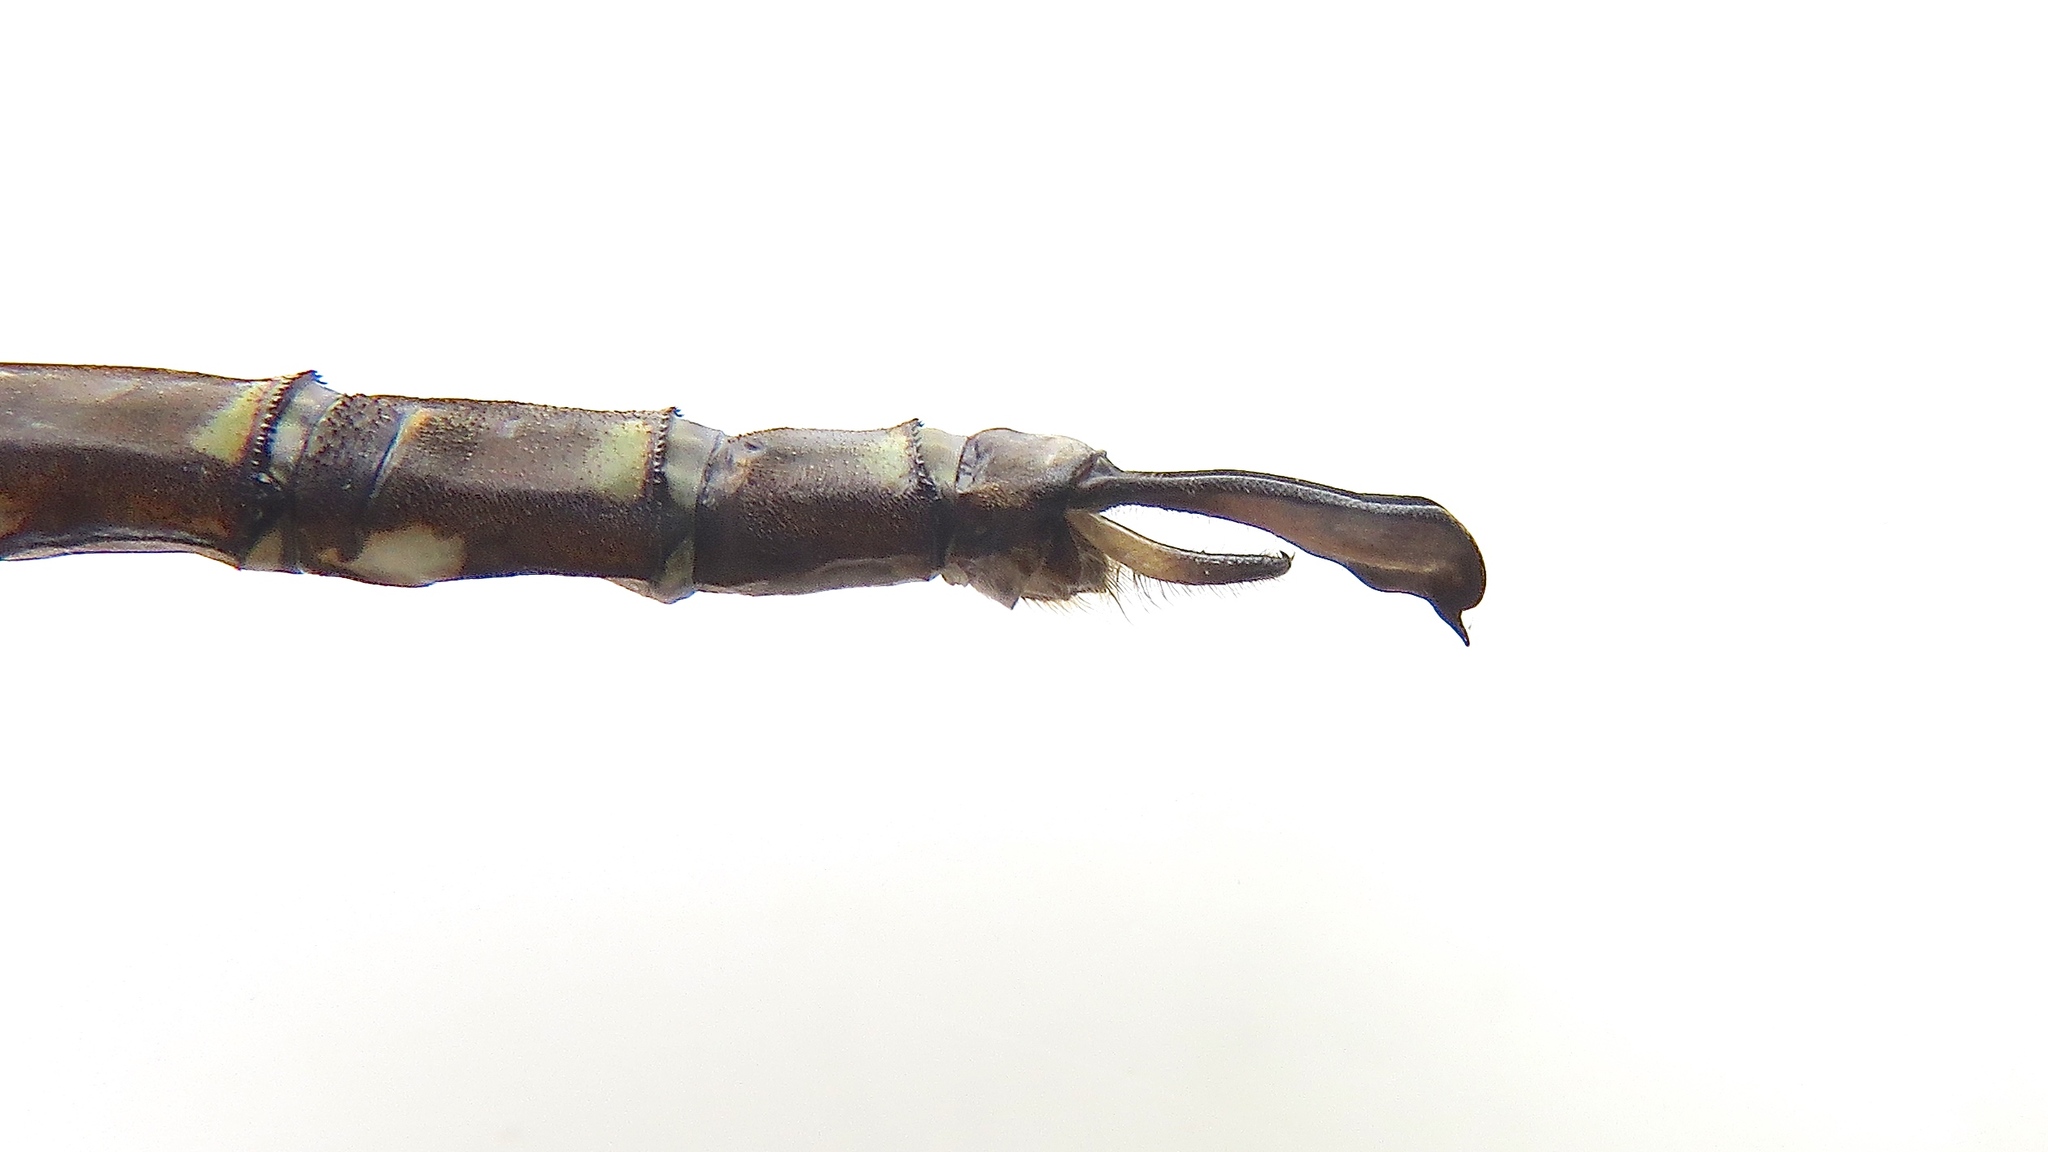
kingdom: Animalia
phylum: Arthropoda
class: Insecta
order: Odonata
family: Aeshnidae
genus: Aeshna
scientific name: Aeshna umbrosa
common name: Shadow darner
